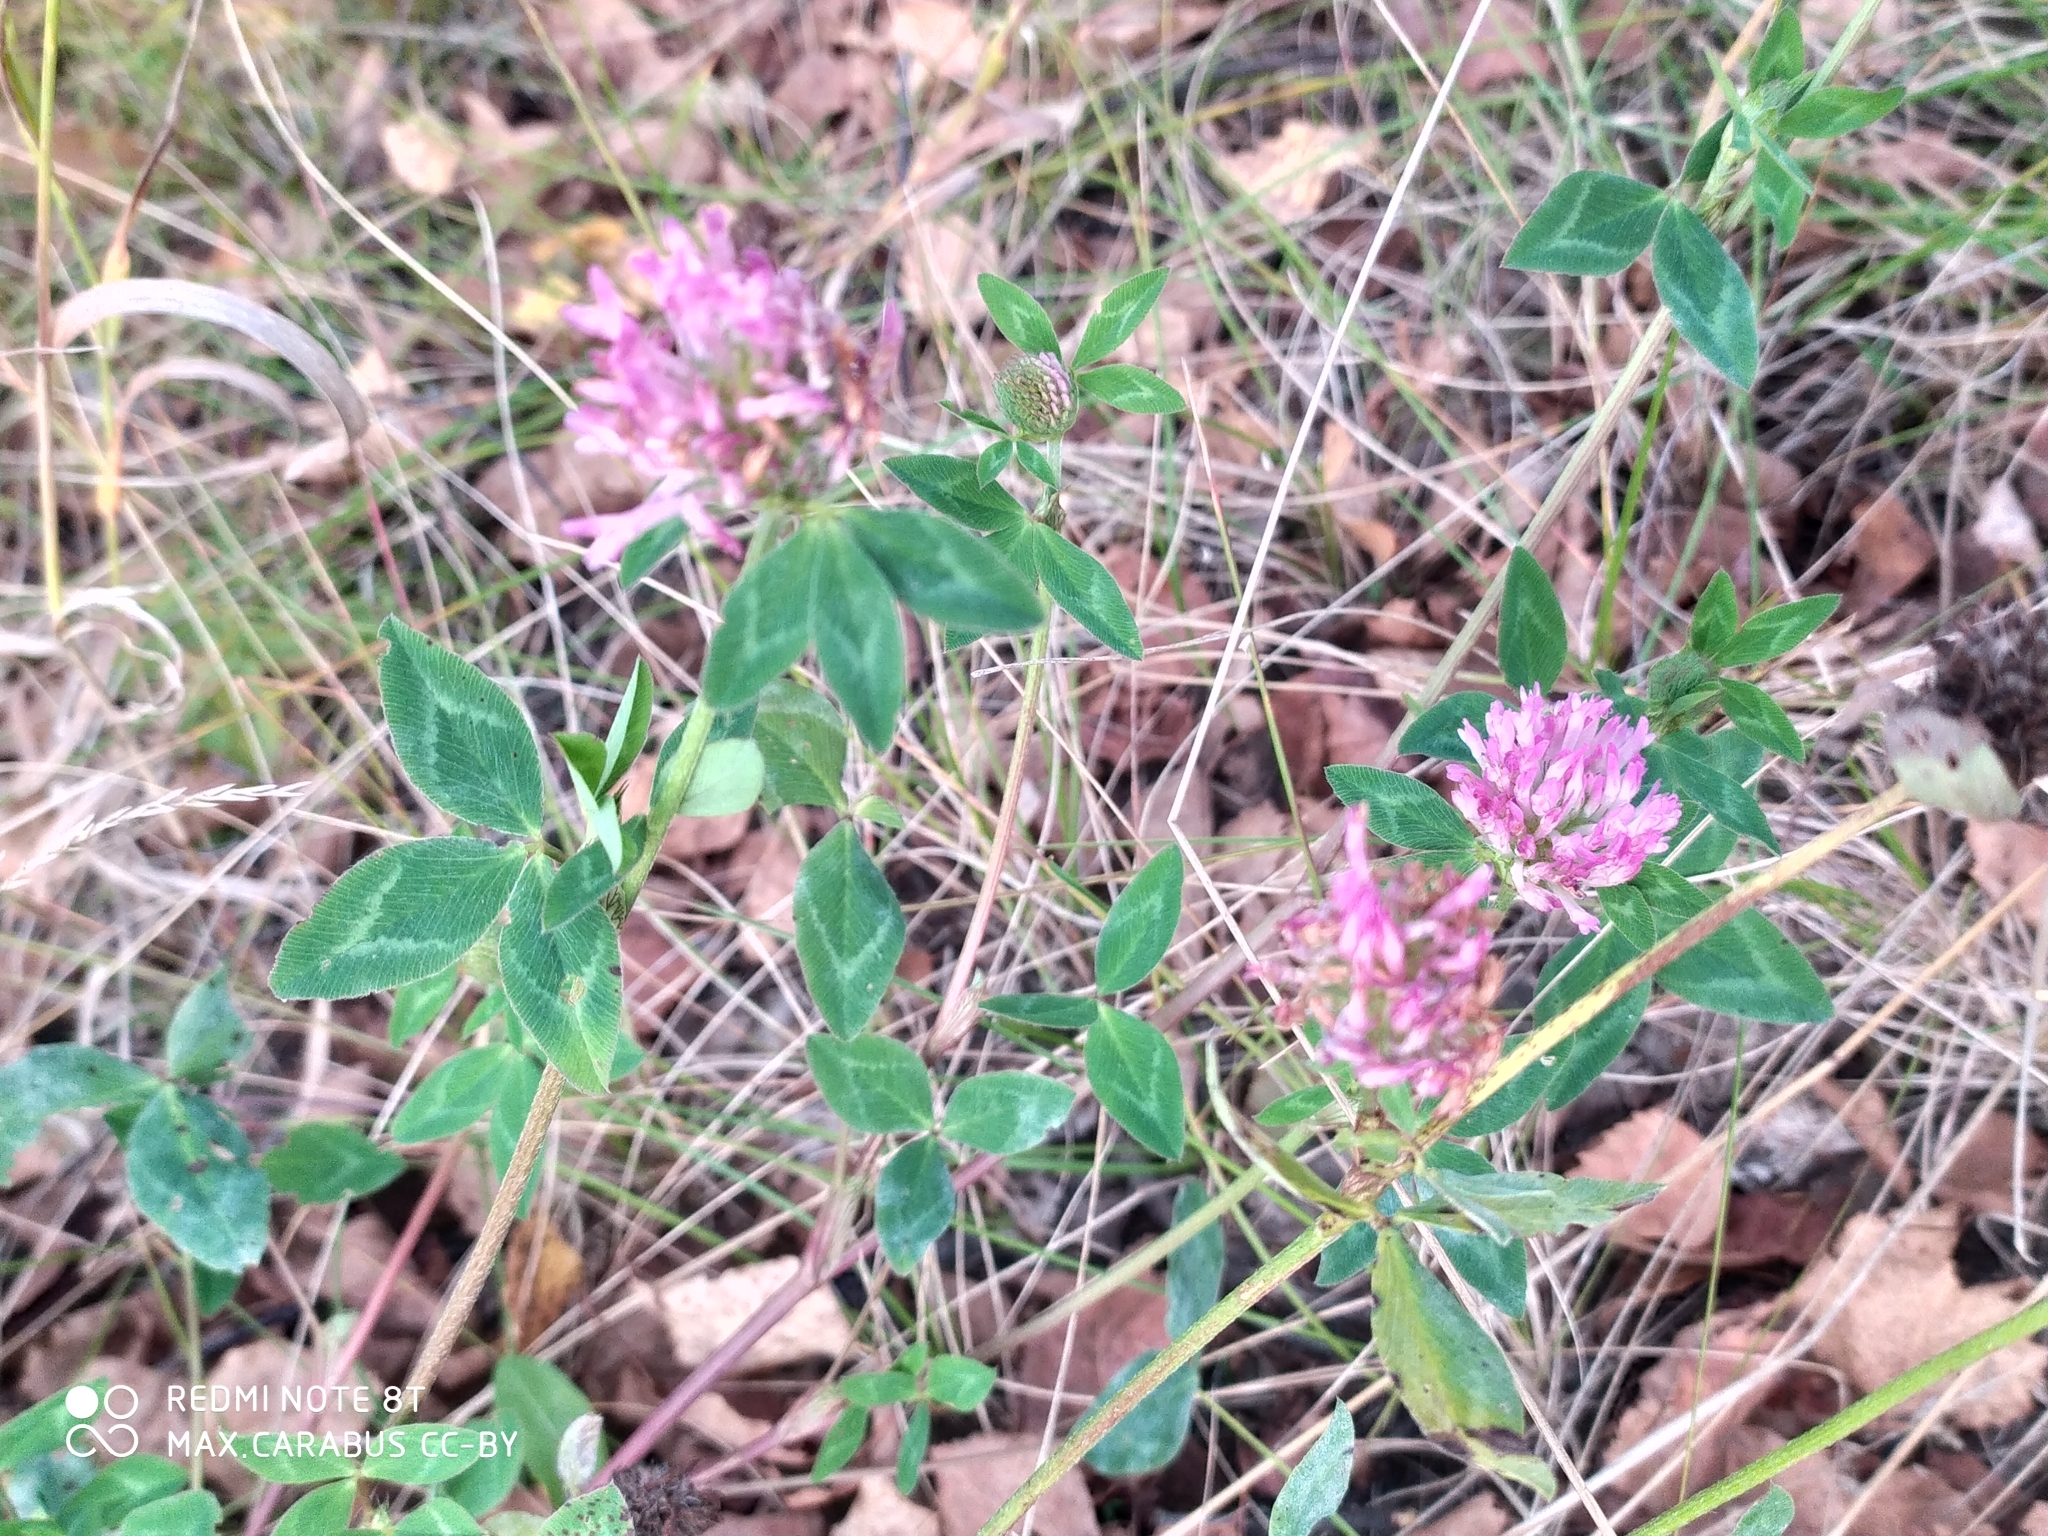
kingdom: Plantae
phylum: Tracheophyta
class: Magnoliopsida
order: Fabales
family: Fabaceae
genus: Trifolium
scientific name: Trifolium pratense
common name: Red clover
